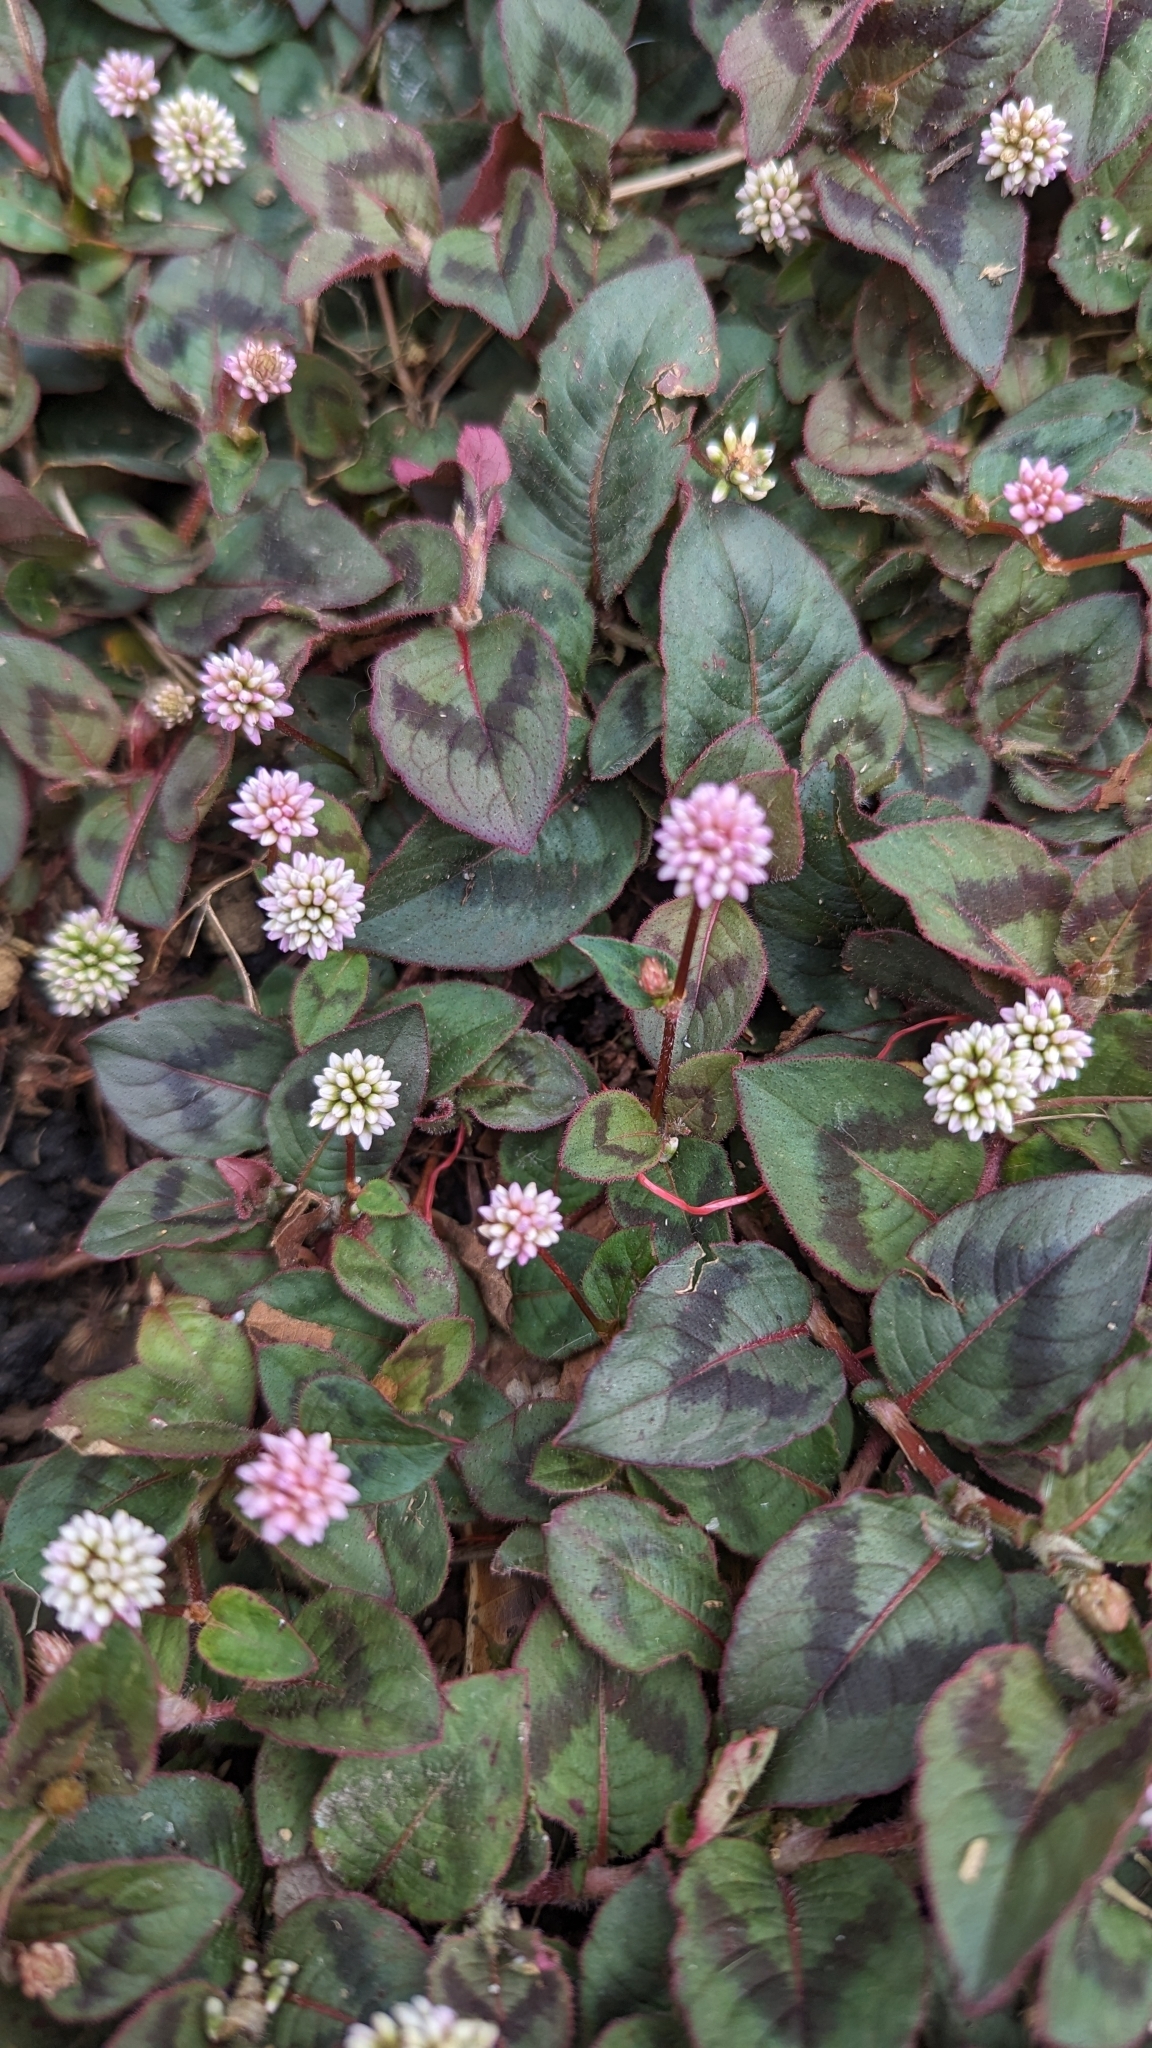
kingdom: Plantae
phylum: Tracheophyta
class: Magnoliopsida
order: Caryophyllales
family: Polygonaceae
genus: Persicaria
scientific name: Persicaria capitata
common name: Pinkhead smartweed
